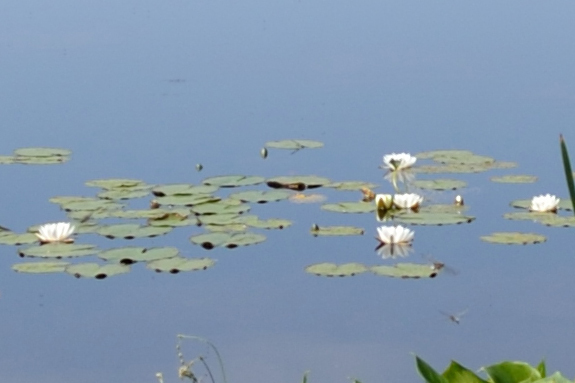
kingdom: Plantae
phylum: Tracheophyta
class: Magnoliopsida
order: Nymphaeales
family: Nymphaeaceae
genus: Nymphaea
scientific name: Nymphaea candida
